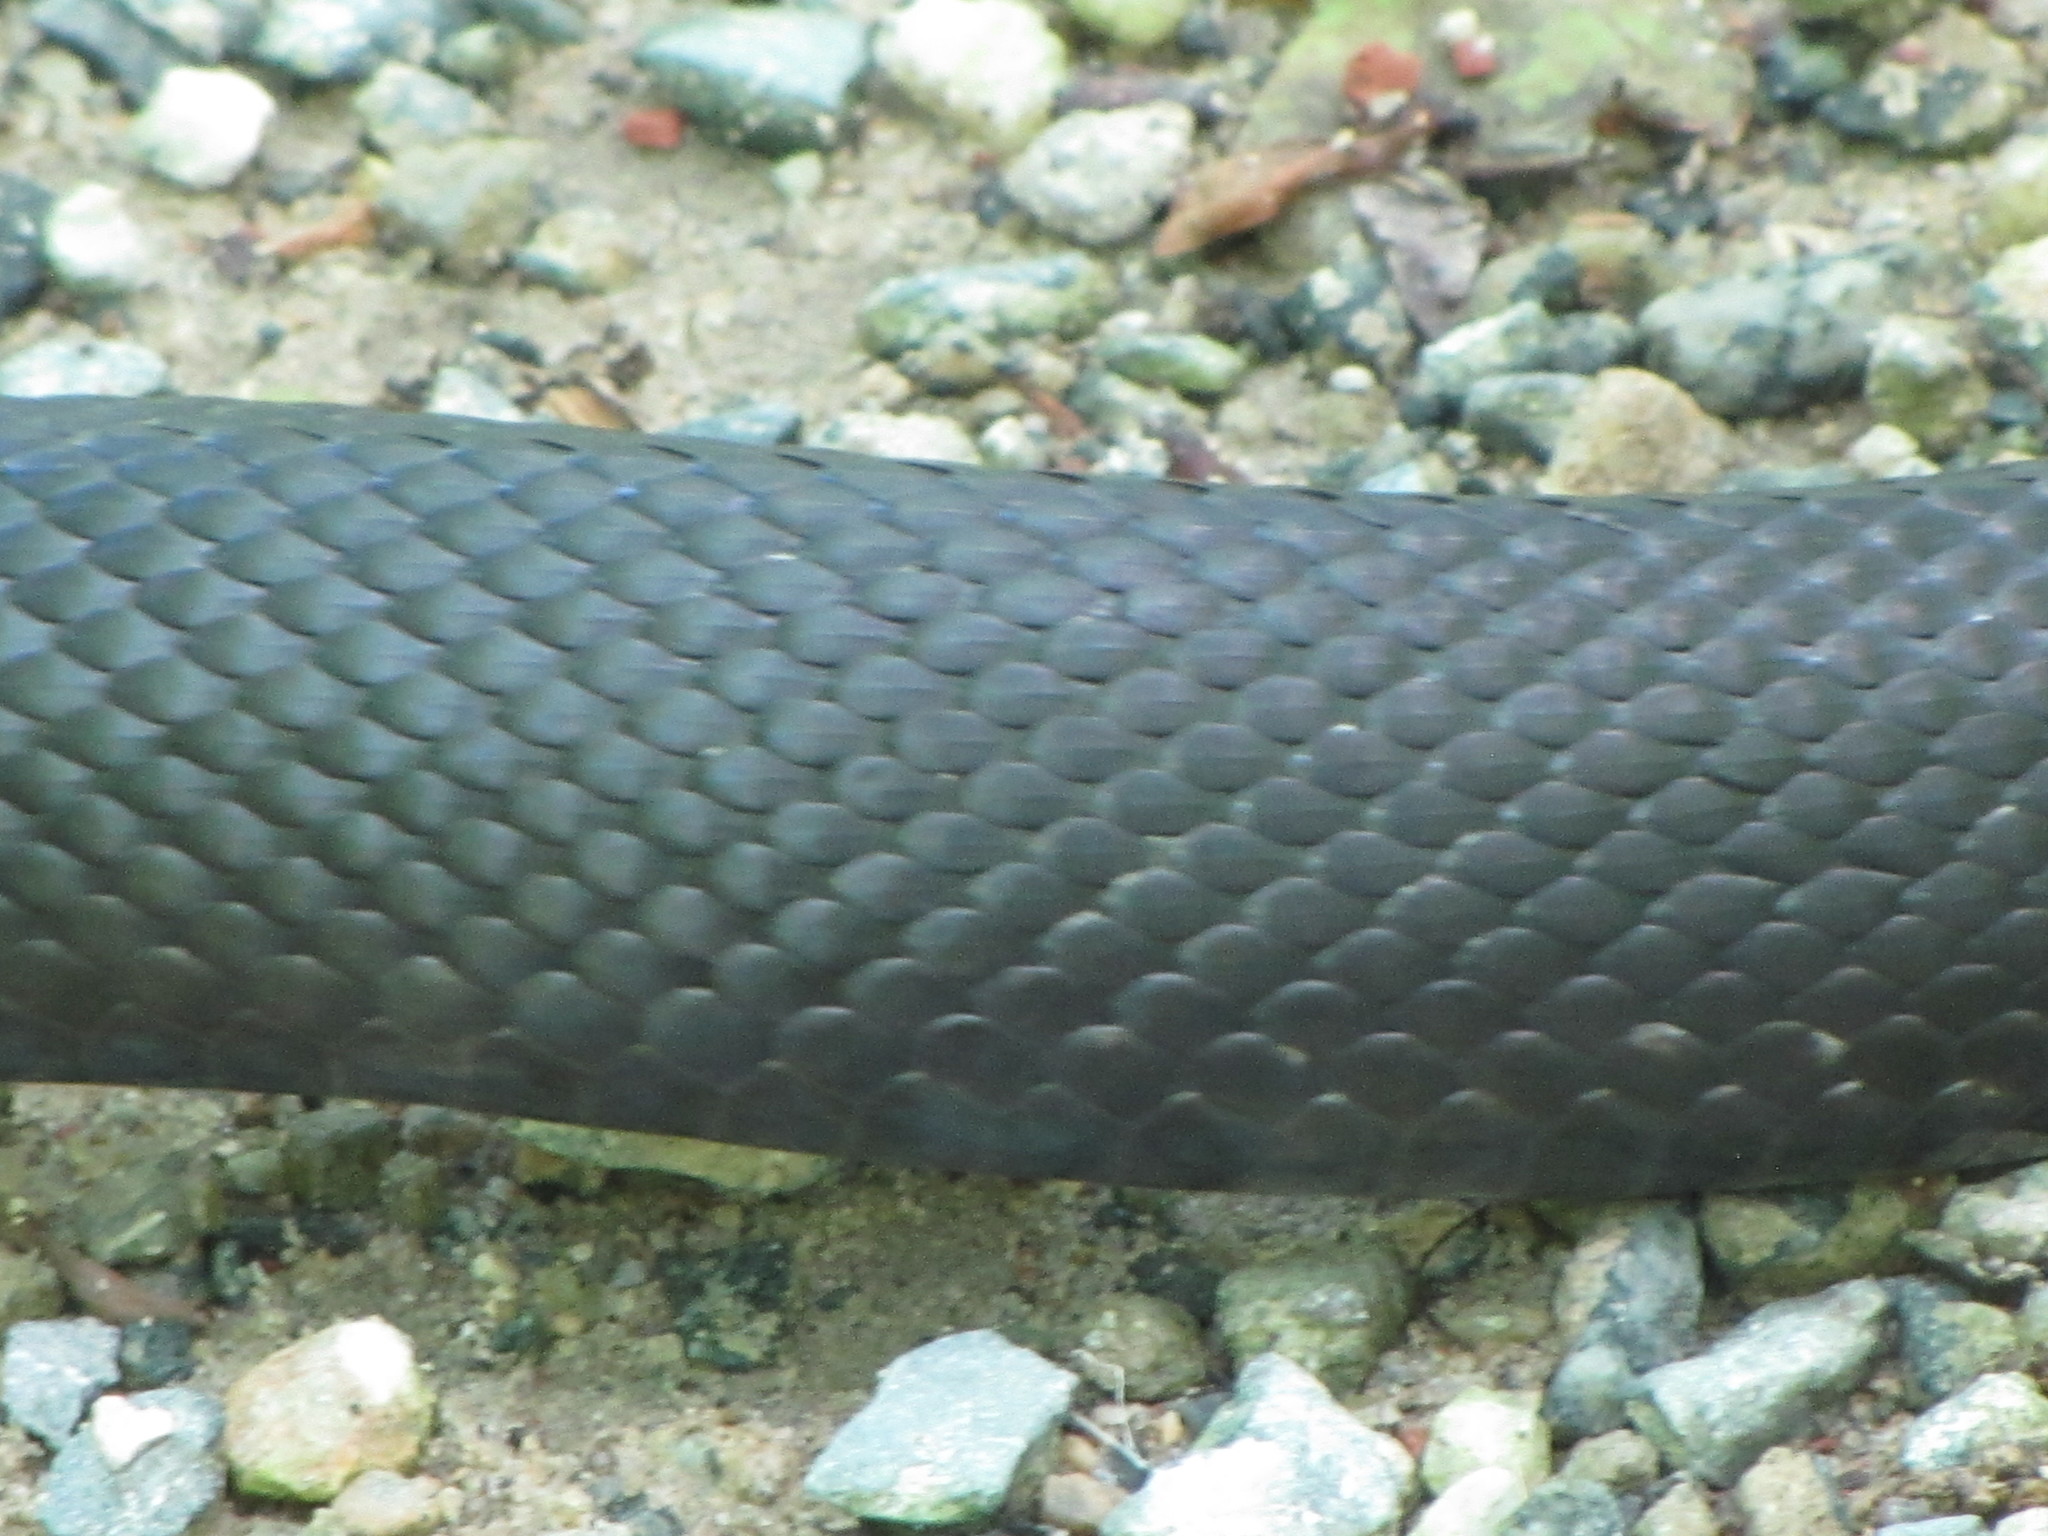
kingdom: Animalia
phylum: Chordata
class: Squamata
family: Colubridae
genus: Pantherophis
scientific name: Pantherophis alleghaniensis
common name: Eastern rat snake
